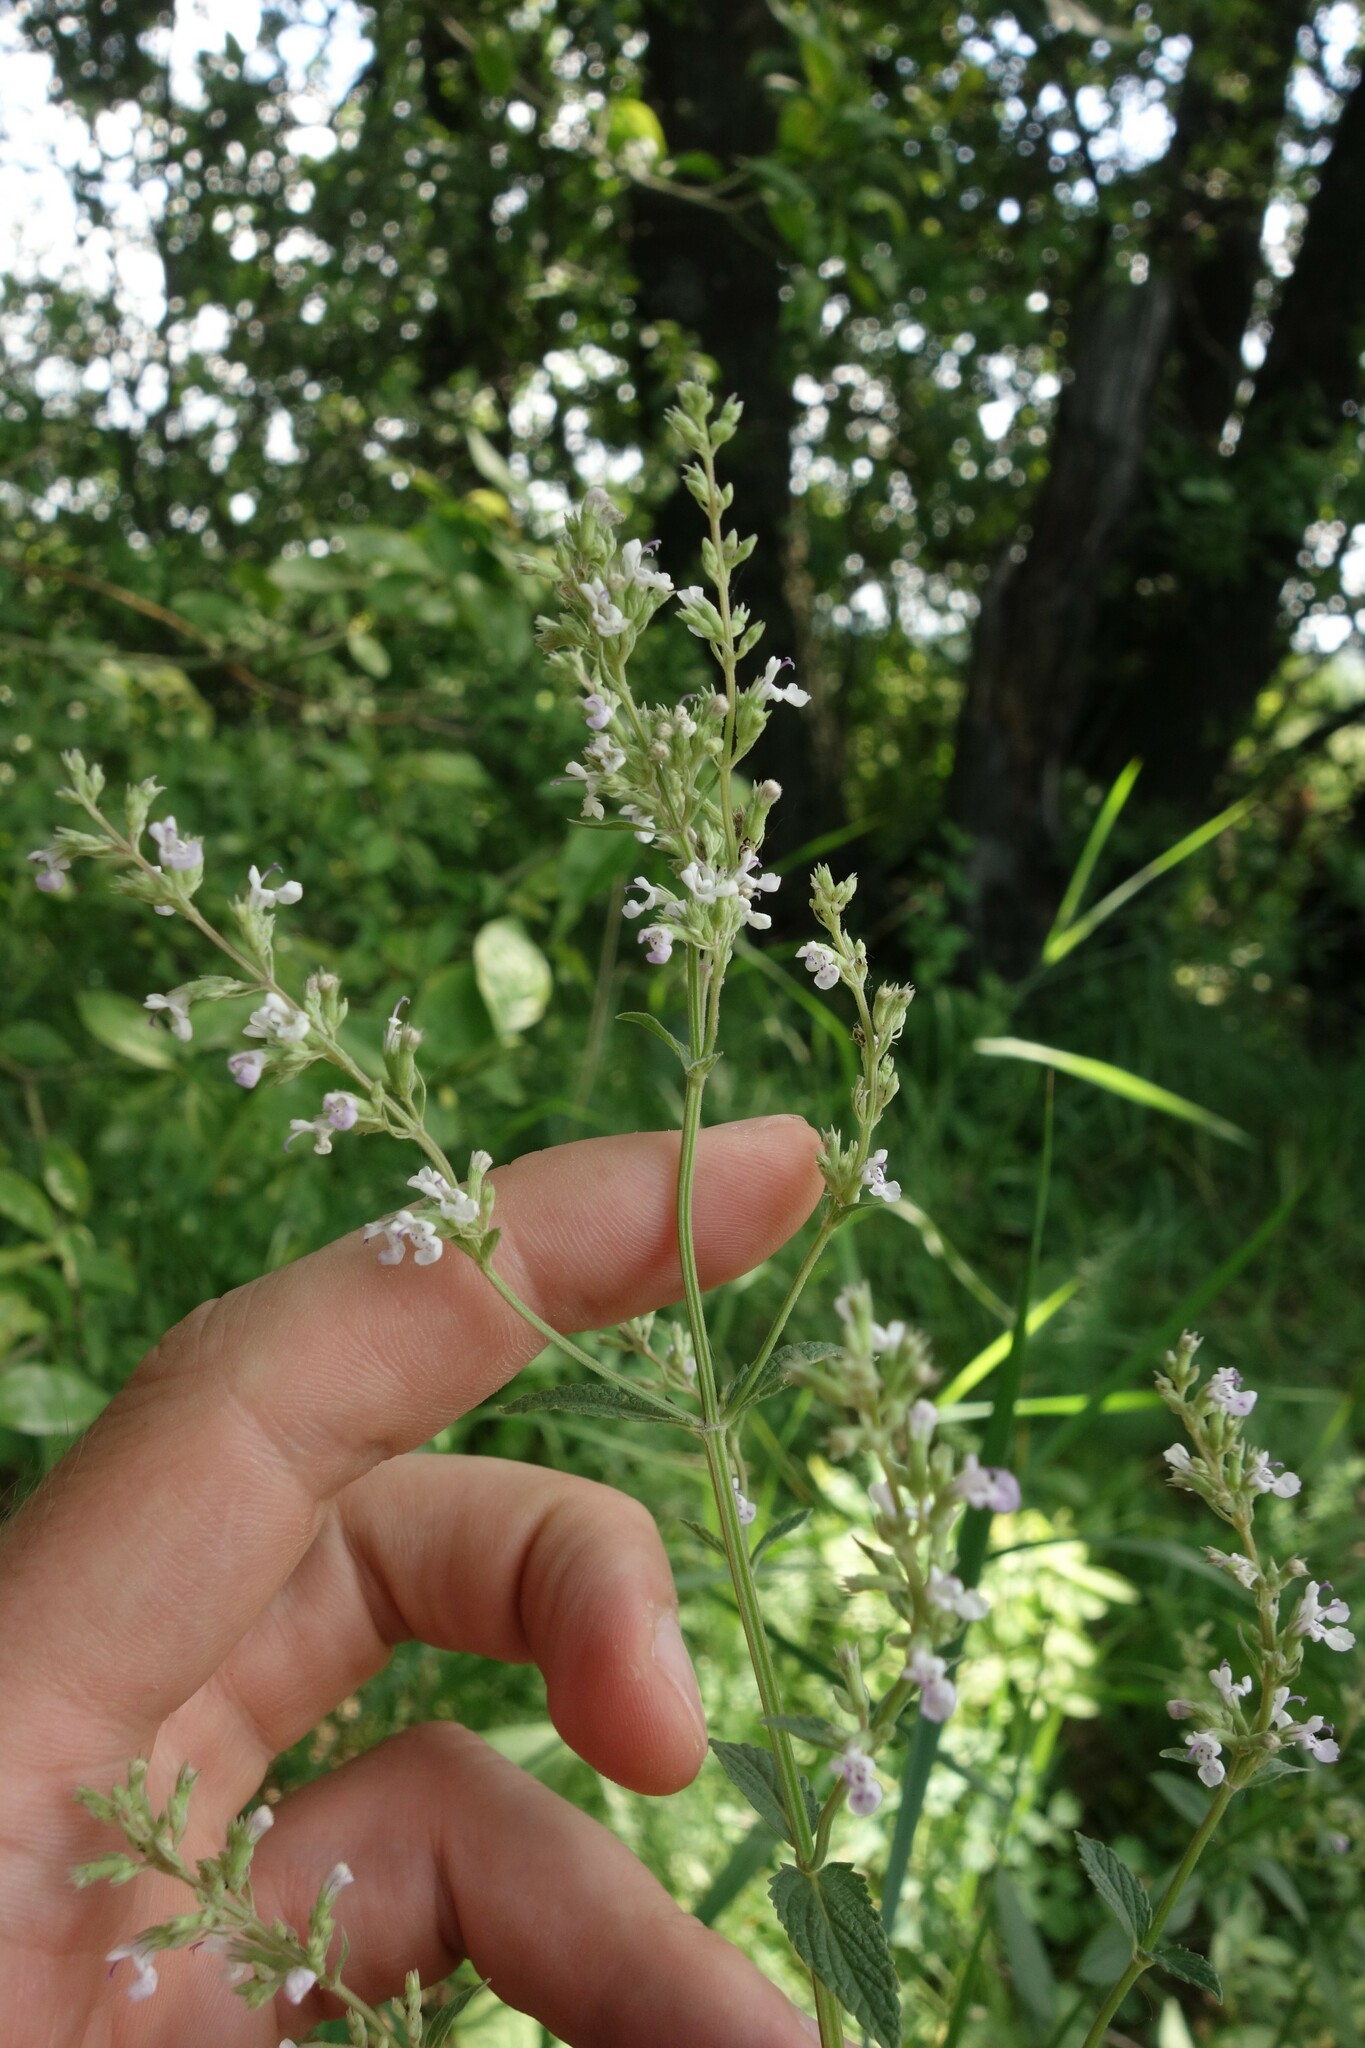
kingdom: Plantae
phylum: Tracheophyta
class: Magnoliopsida
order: Lamiales
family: Lamiaceae
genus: Nepeta
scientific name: Nepeta nuda
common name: Hairless catmint
